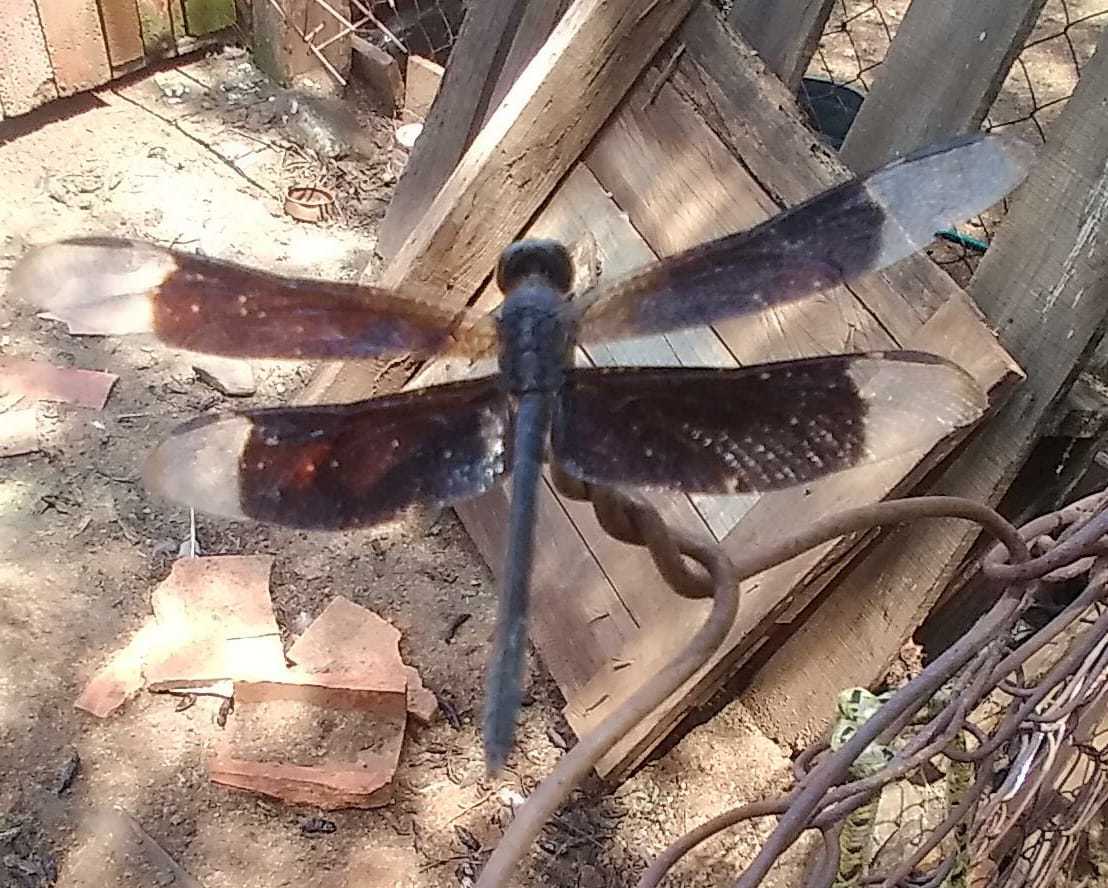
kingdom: Animalia
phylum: Arthropoda
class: Insecta
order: Odonata
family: Libellulidae
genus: Erythrodiplax
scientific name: Erythrodiplax funerea
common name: Black-winged dragonlet
